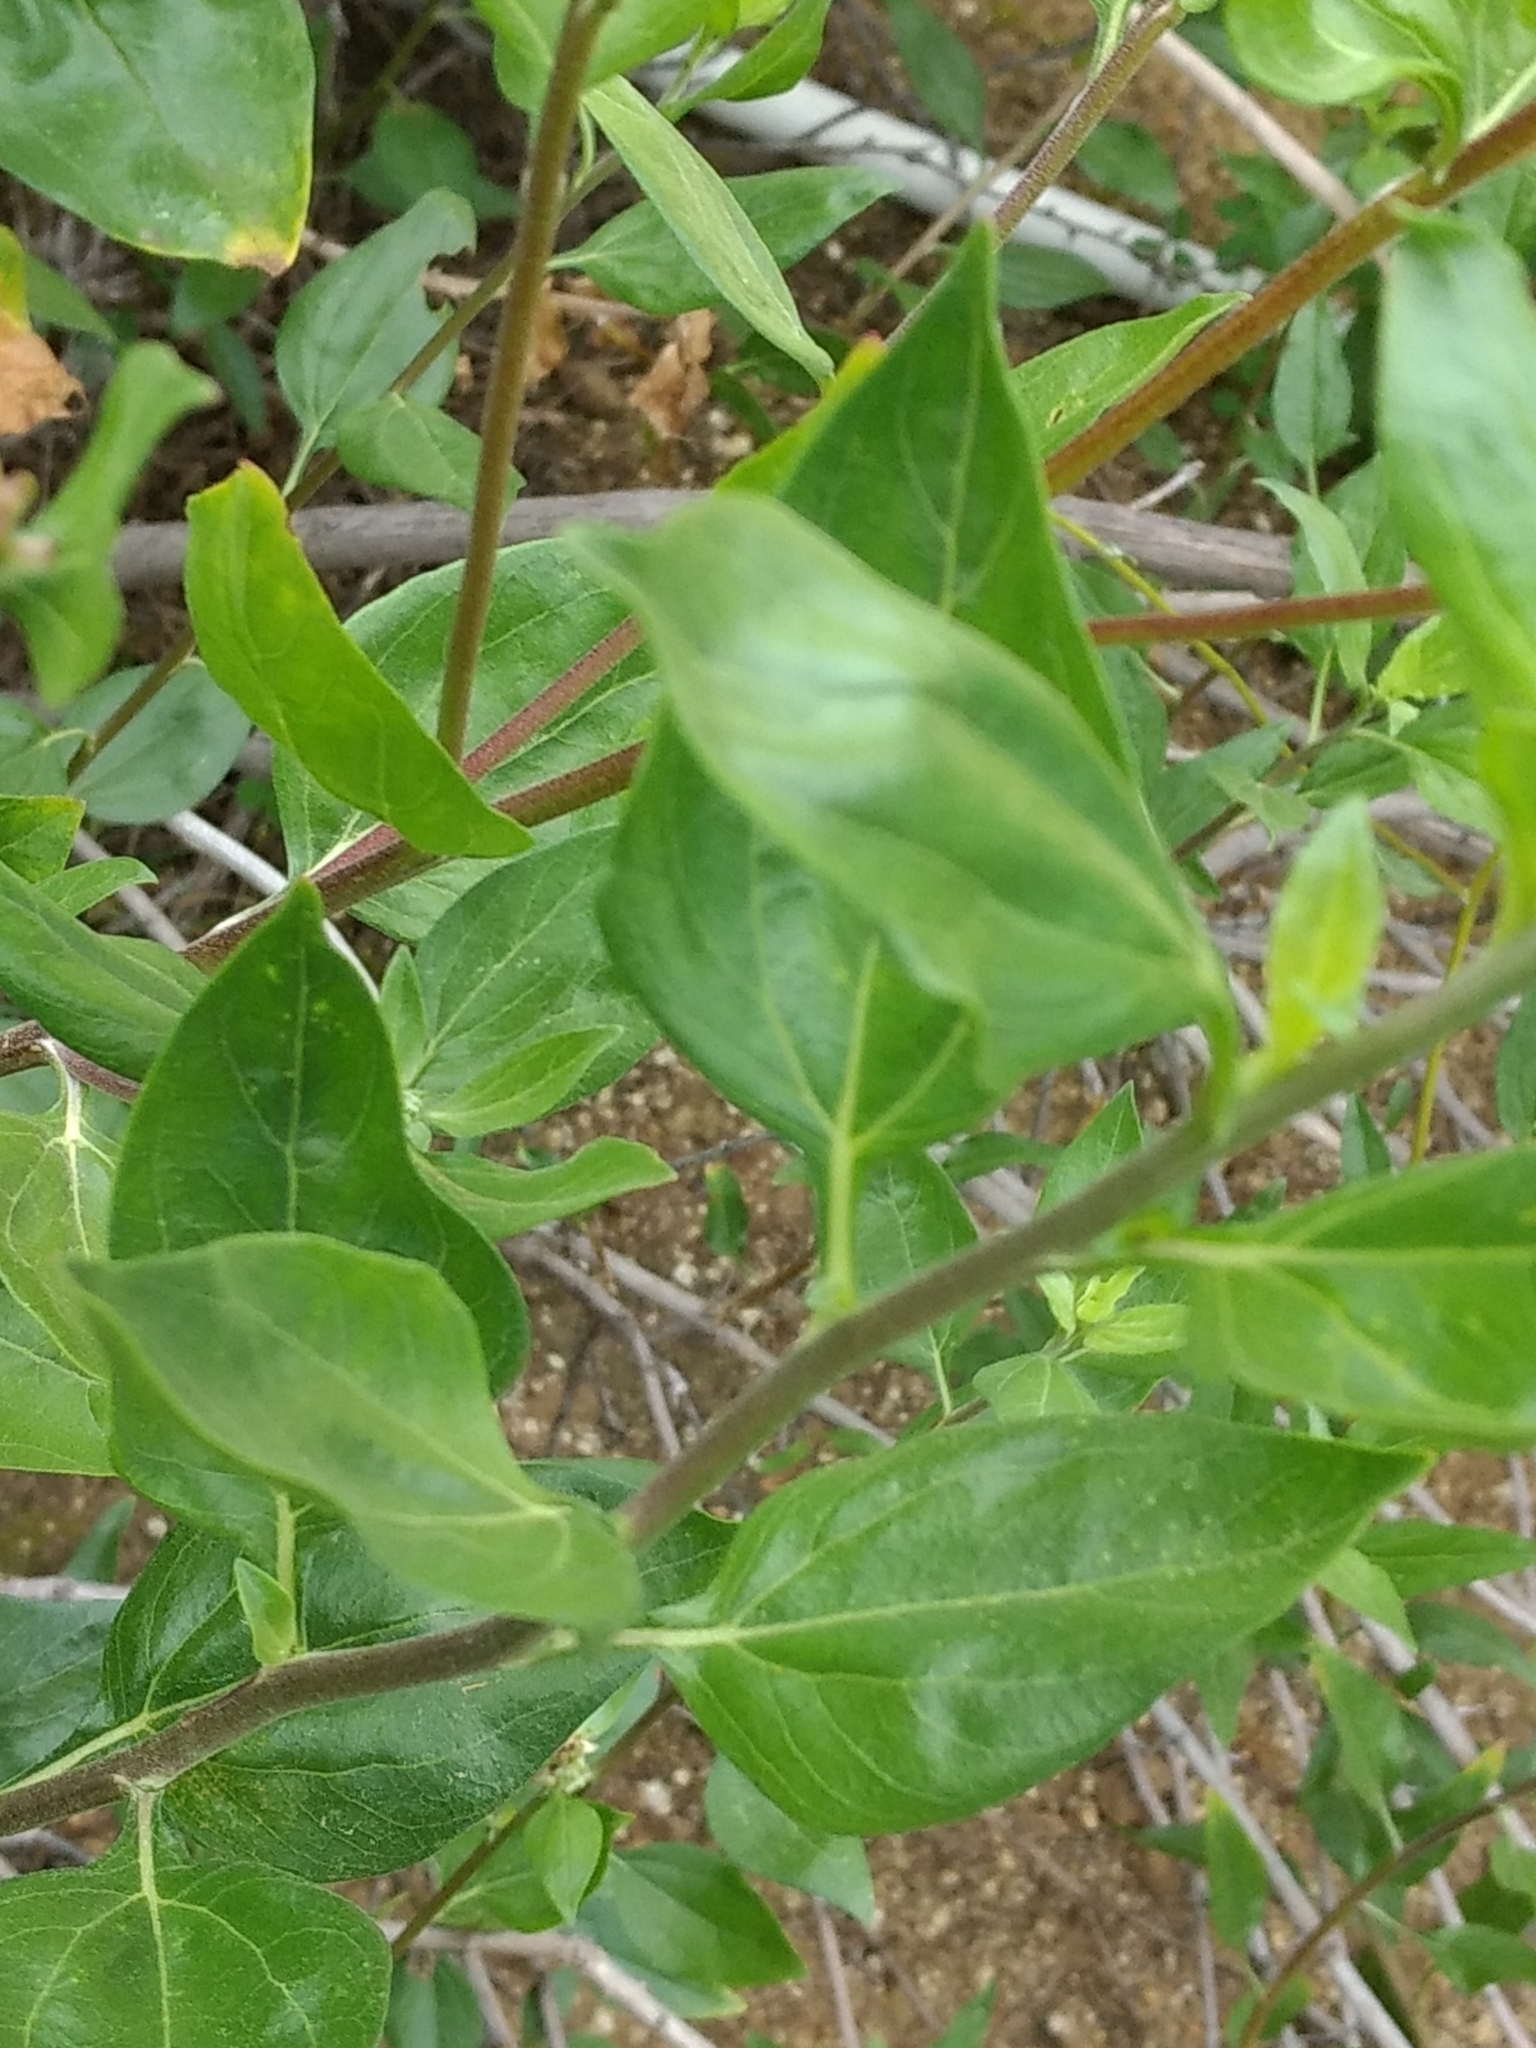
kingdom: Plantae
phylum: Tracheophyta
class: Magnoliopsida
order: Asterales
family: Asteraceae
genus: Encelia
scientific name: Encelia californica
